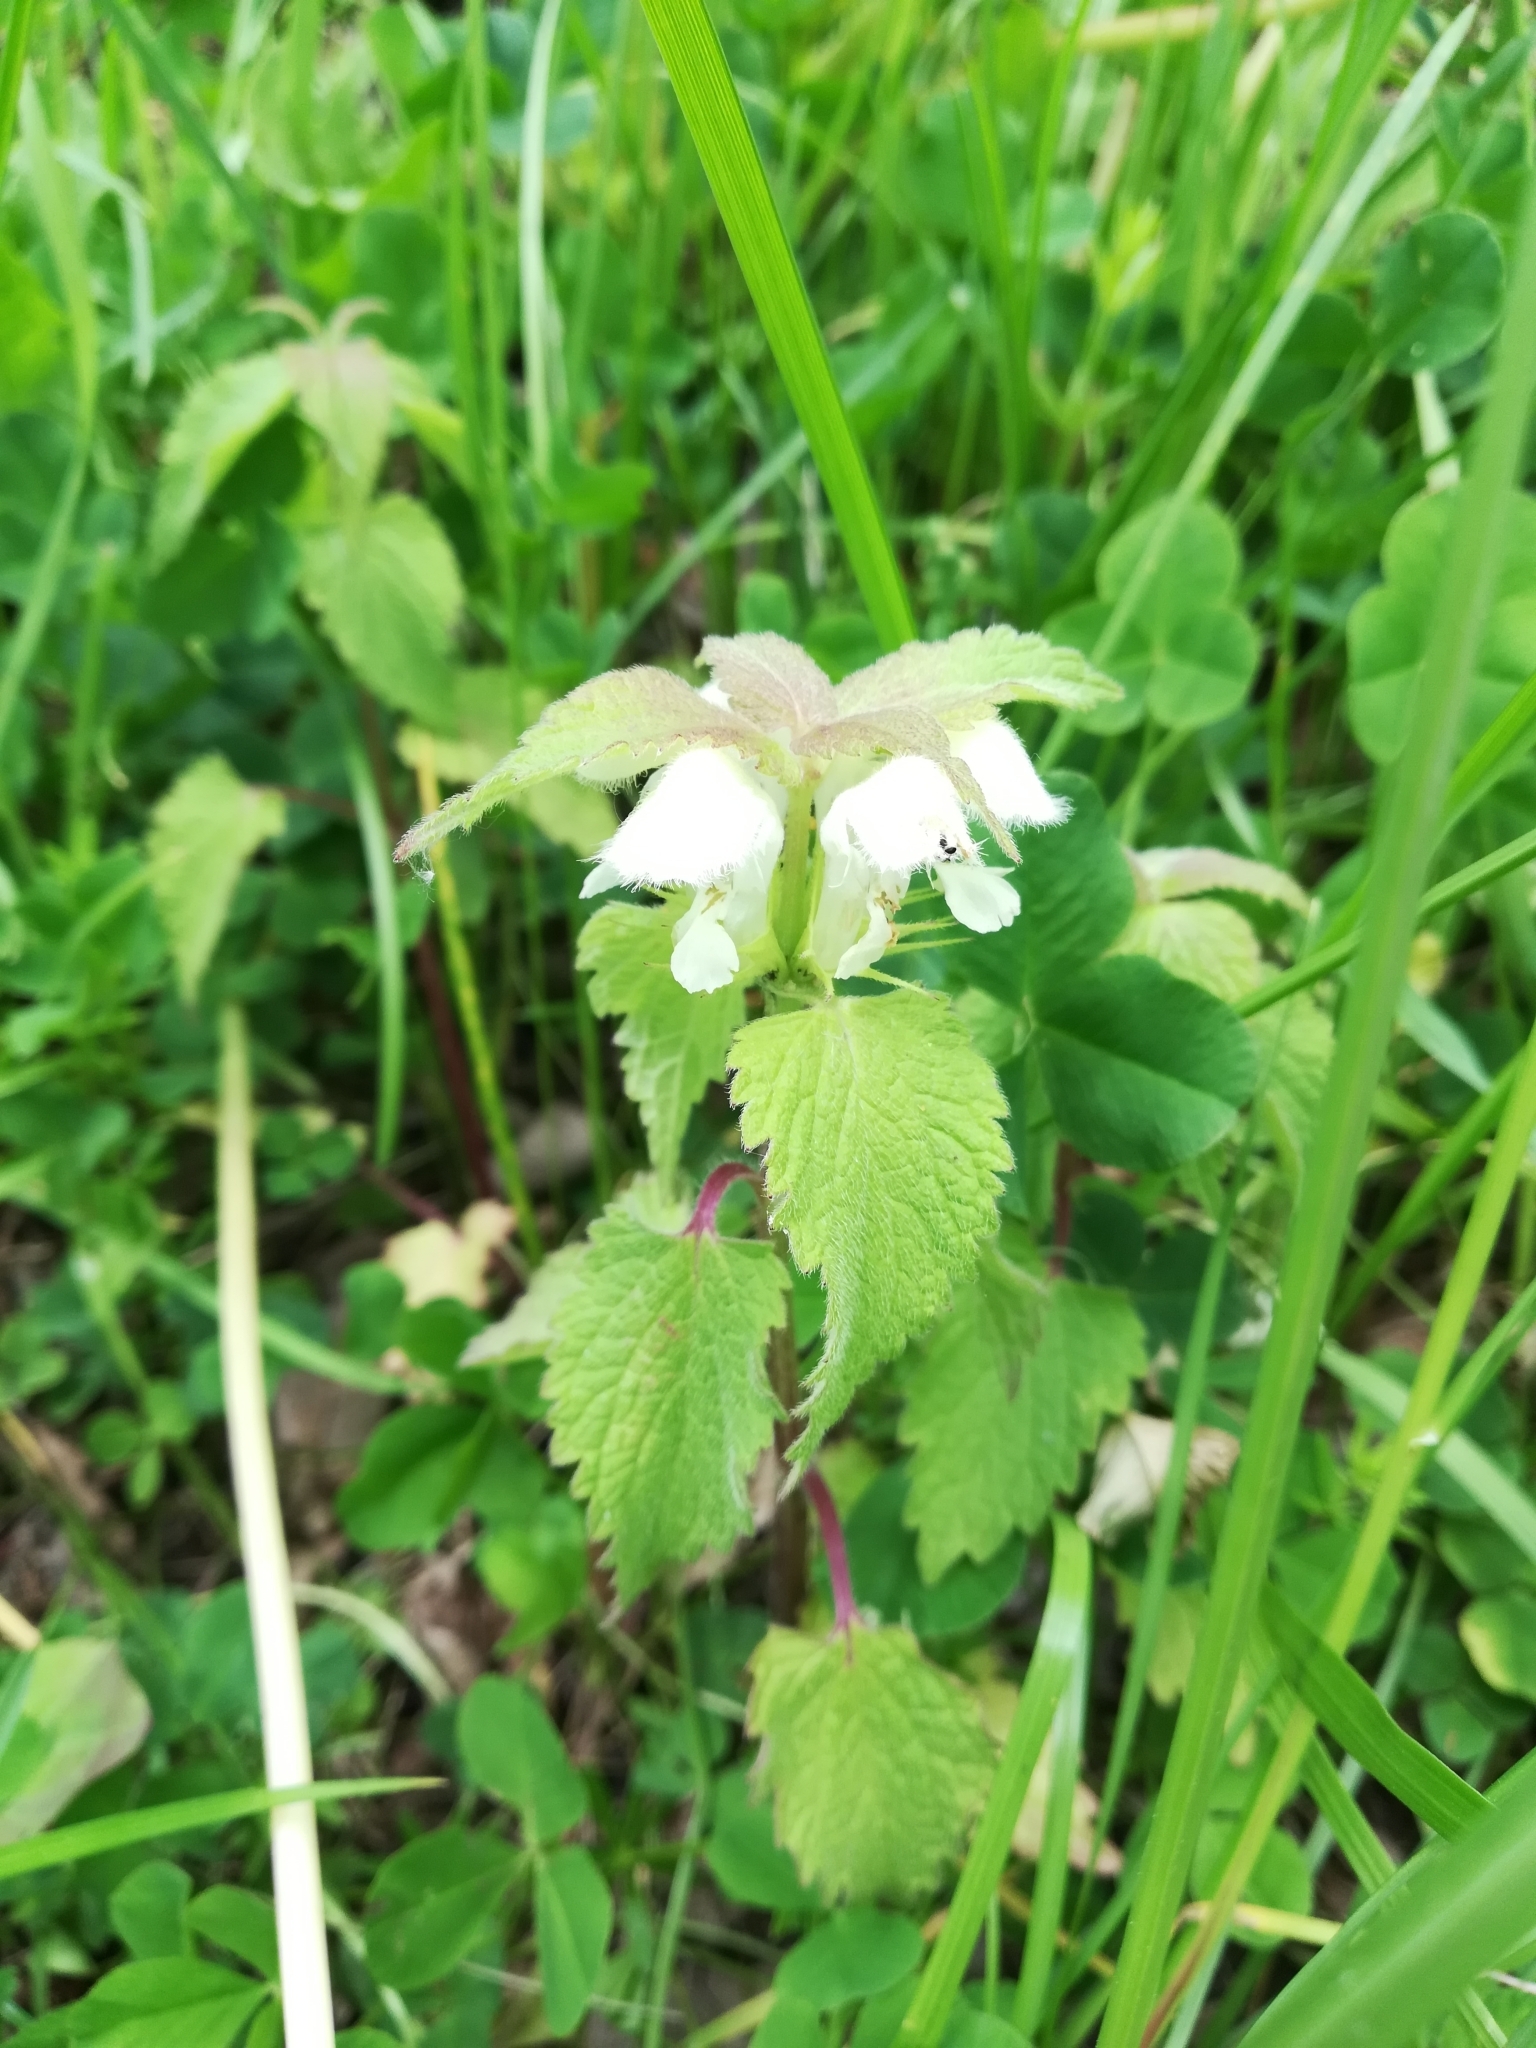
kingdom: Plantae
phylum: Tracheophyta
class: Magnoliopsida
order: Lamiales
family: Lamiaceae
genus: Lamium
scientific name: Lamium album
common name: White dead-nettle
